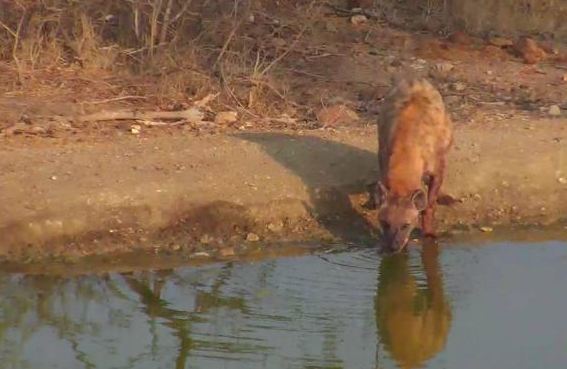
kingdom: Animalia
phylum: Chordata
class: Mammalia
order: Carnivora
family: Hyaenidae
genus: Crocuta
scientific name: Crocuta crocuta
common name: Spotted hyaena
